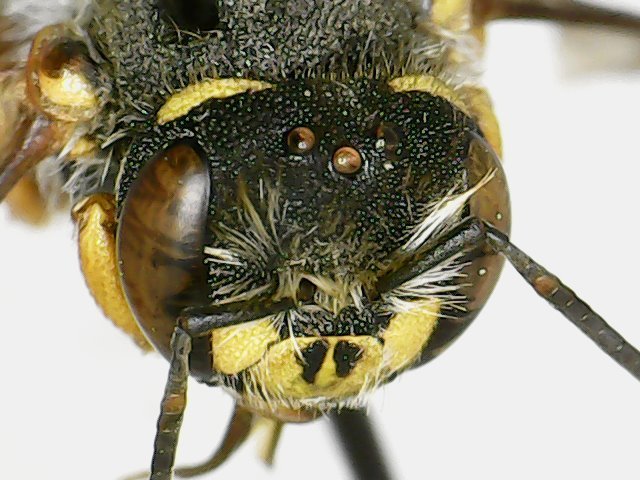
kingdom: Animalia
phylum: Arthropoda
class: Insecta
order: Hymenoptera
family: Megachilidae
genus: Anthidium
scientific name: Anthidium oblongatum
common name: Oblong wool carder bee
